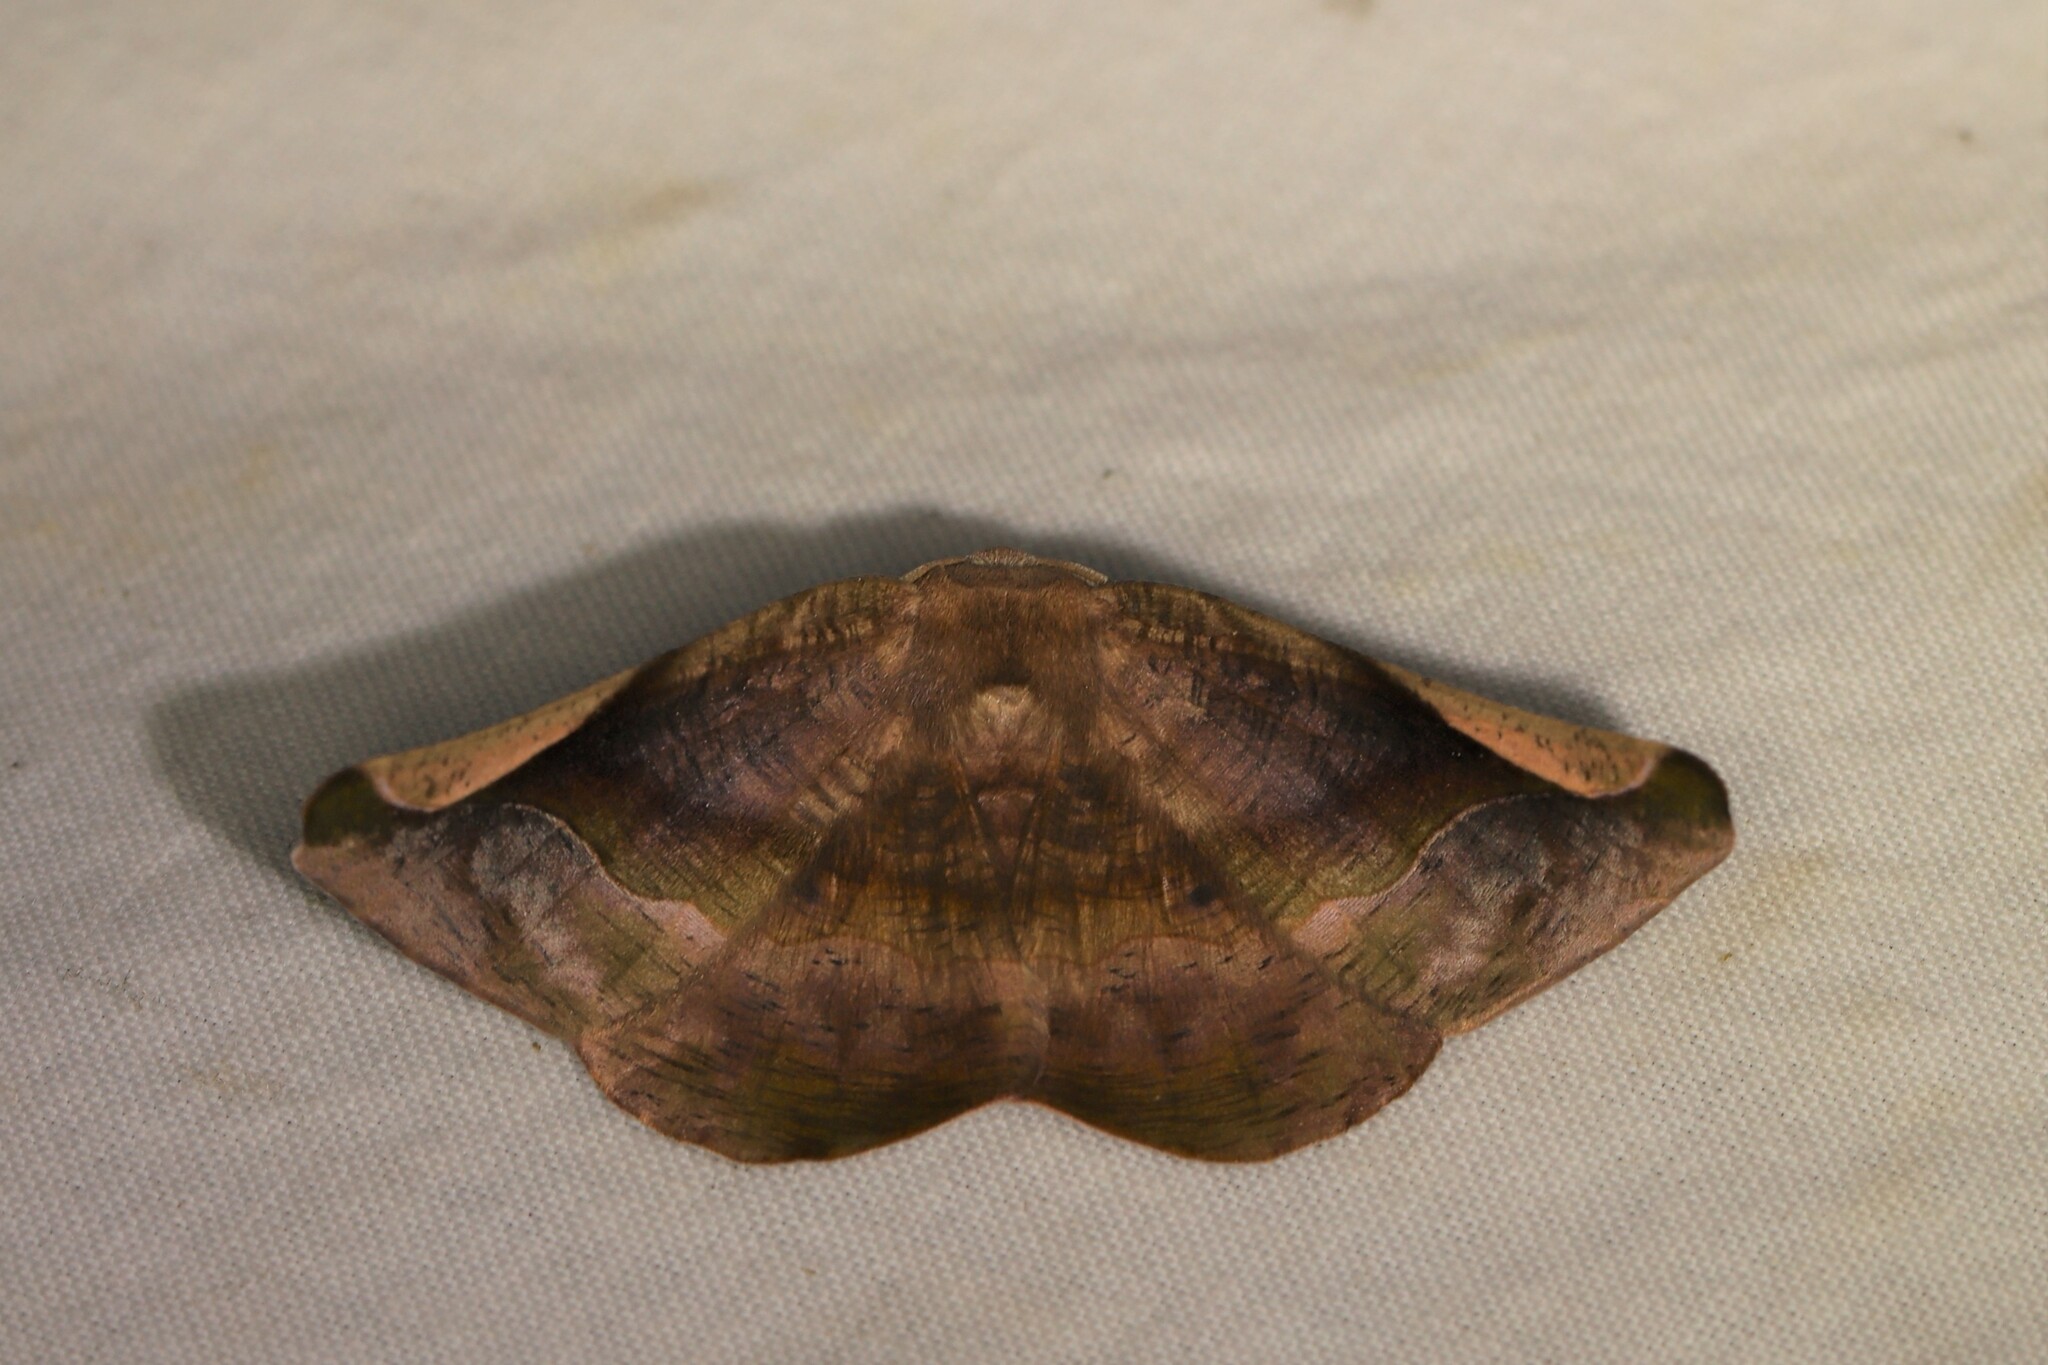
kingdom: Animalia
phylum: Arthropoda
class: Insecta
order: Lepidoptera
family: Geometridae
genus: Hygrochroma
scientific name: Hygrochroma nondina
